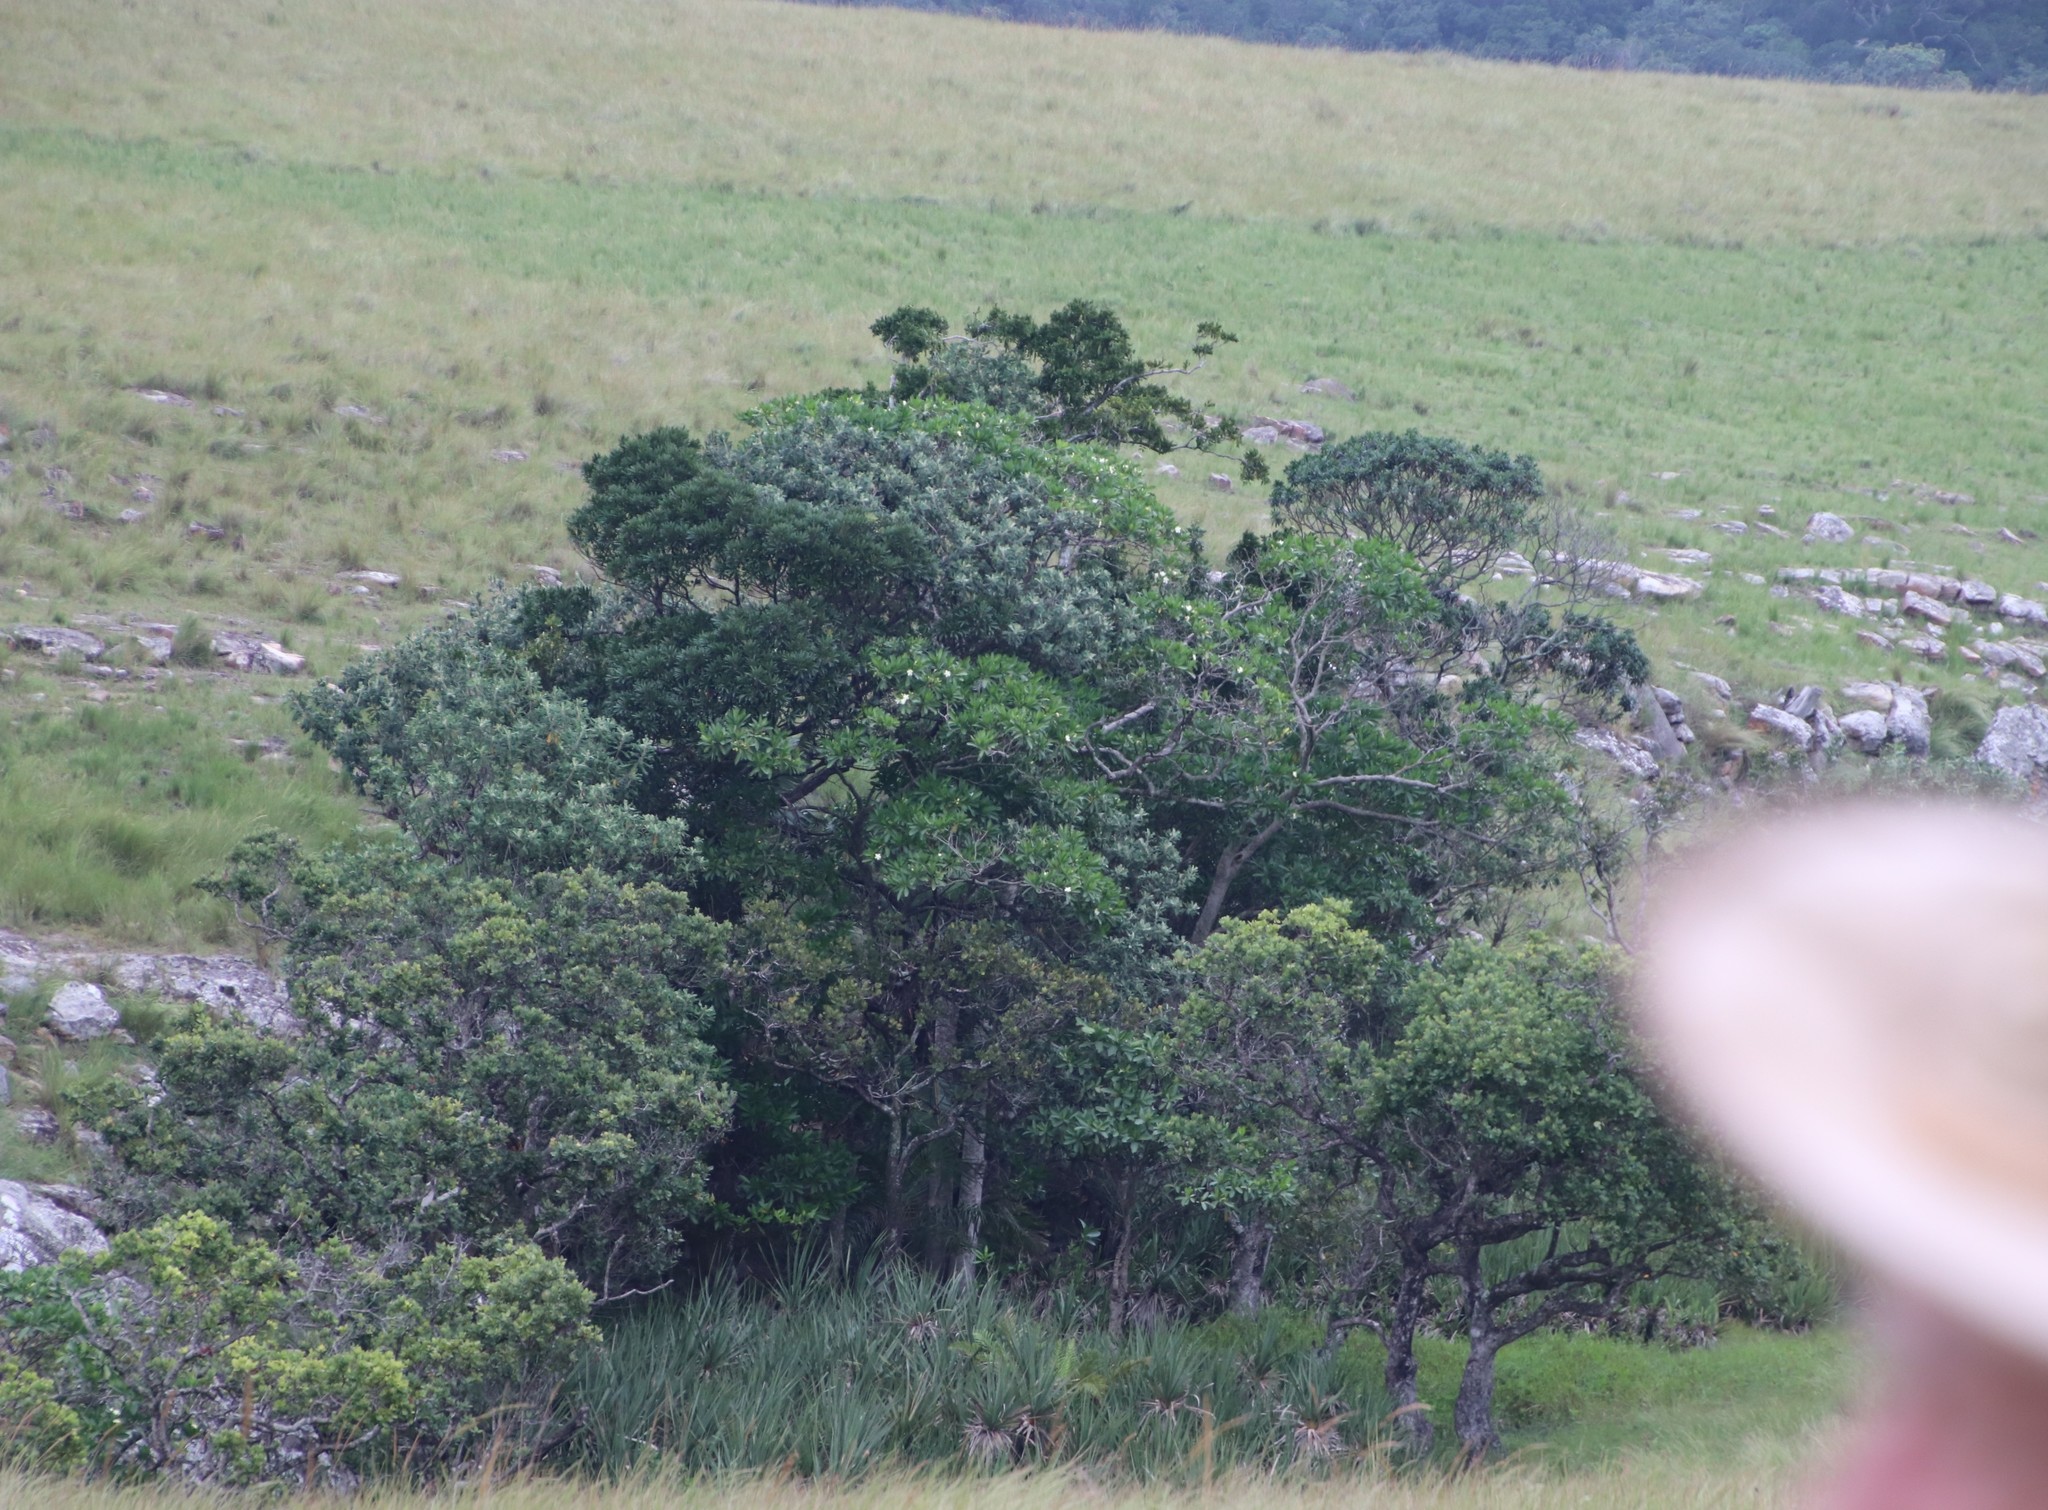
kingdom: Plantae
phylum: Tracheophyta
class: Magnoliopsida
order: Gentianales
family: Apocynaceae
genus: Voacanga
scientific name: Voacanga thouarsii
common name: Wild frangipani
